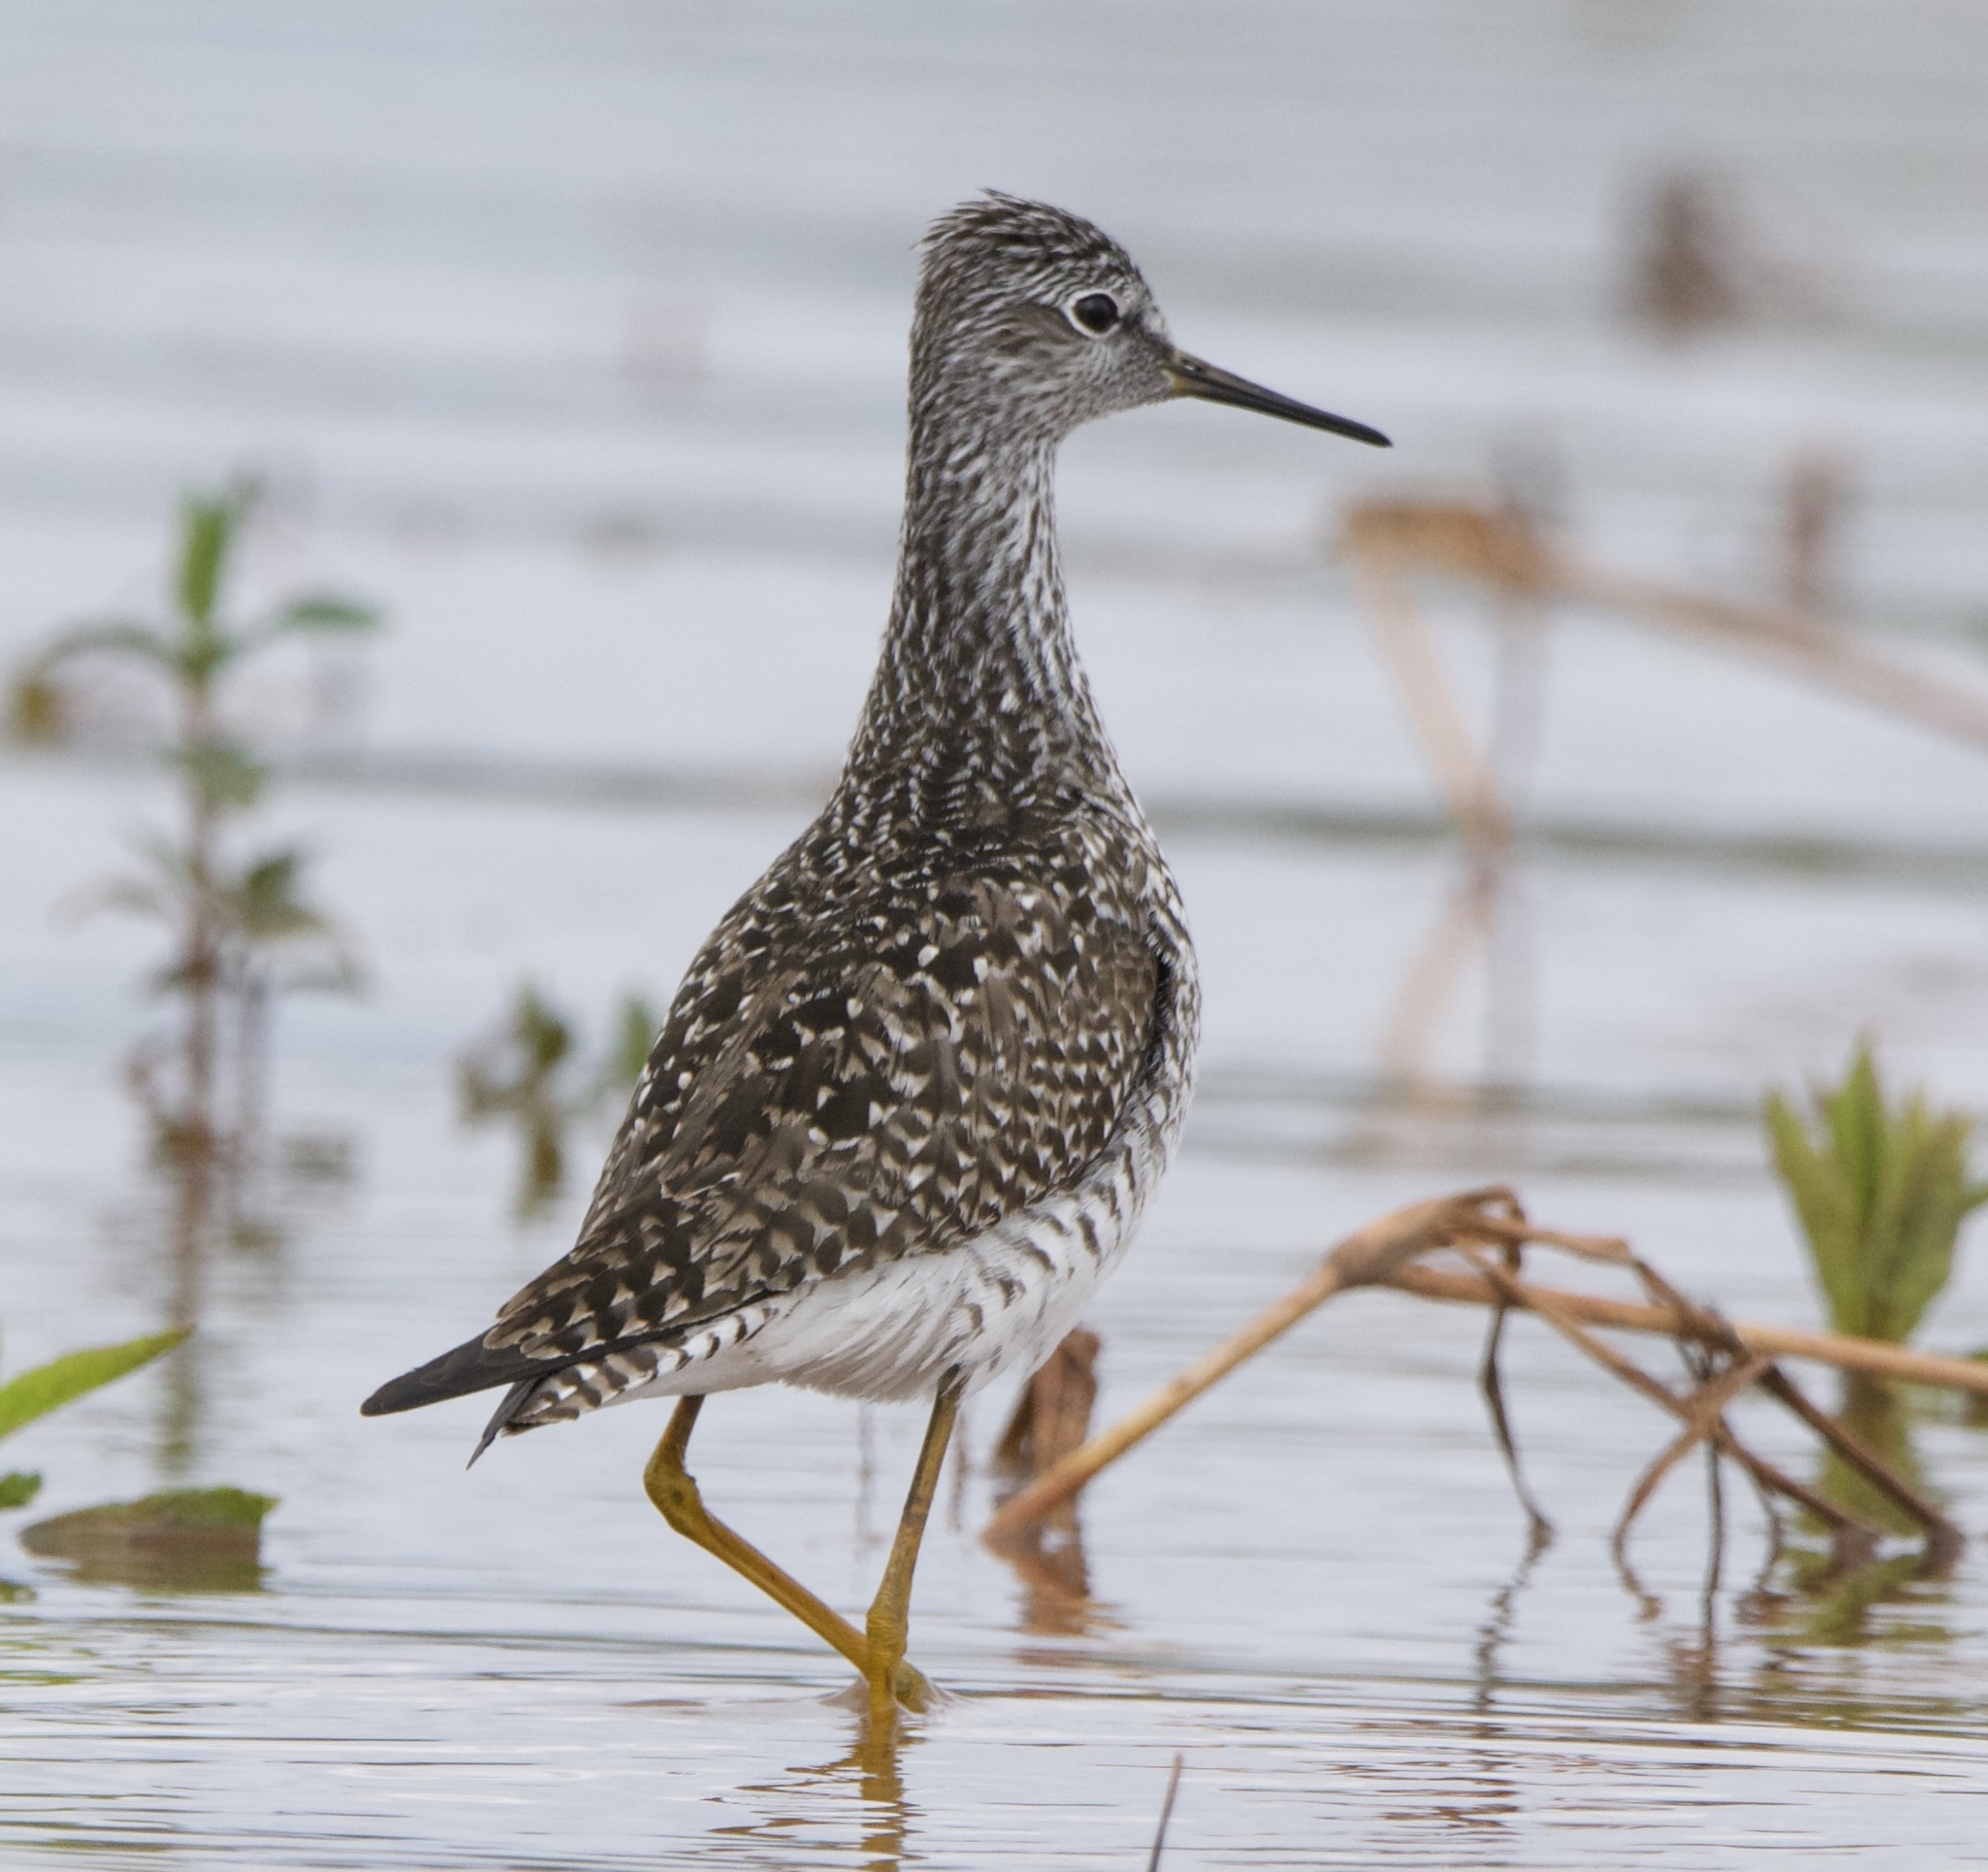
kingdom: Animalia
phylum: Chordata
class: Aves
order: Charadriiformes
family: Scolopacidae
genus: Tringa
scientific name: Tringa flavipes
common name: Lesser yellowlegs
